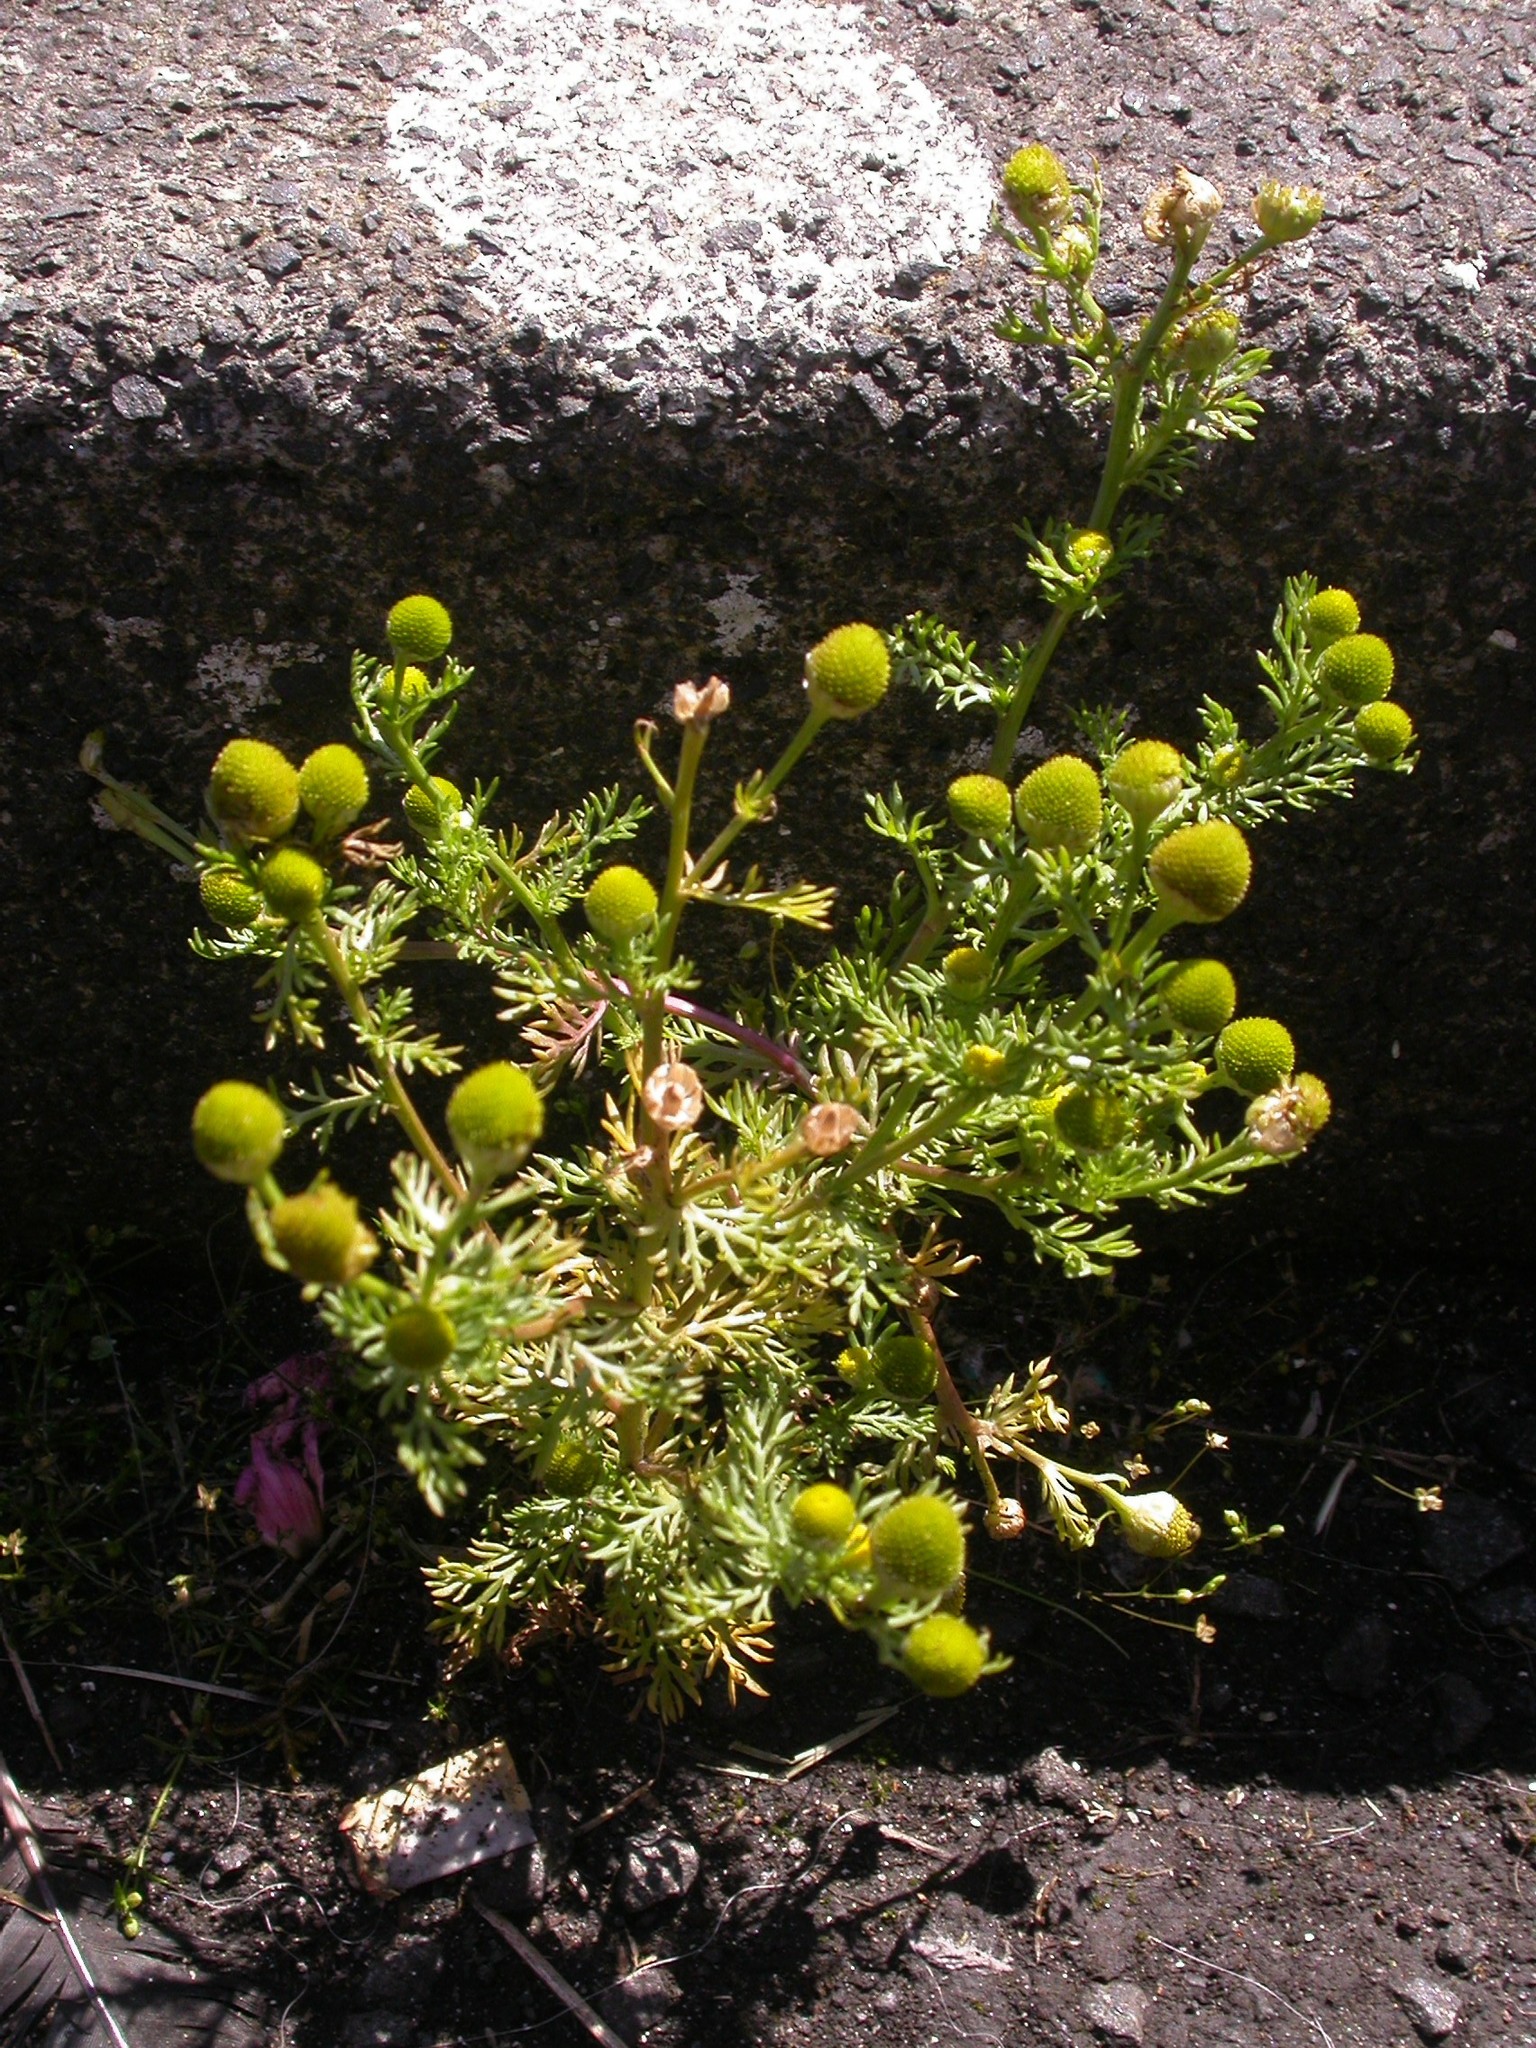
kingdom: Plantae
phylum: Tracheophyta
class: Magnoliopsida
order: Asterales
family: Asteraceae
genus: Matricaria
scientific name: Matricaria discoidea
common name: Disc mayweed
